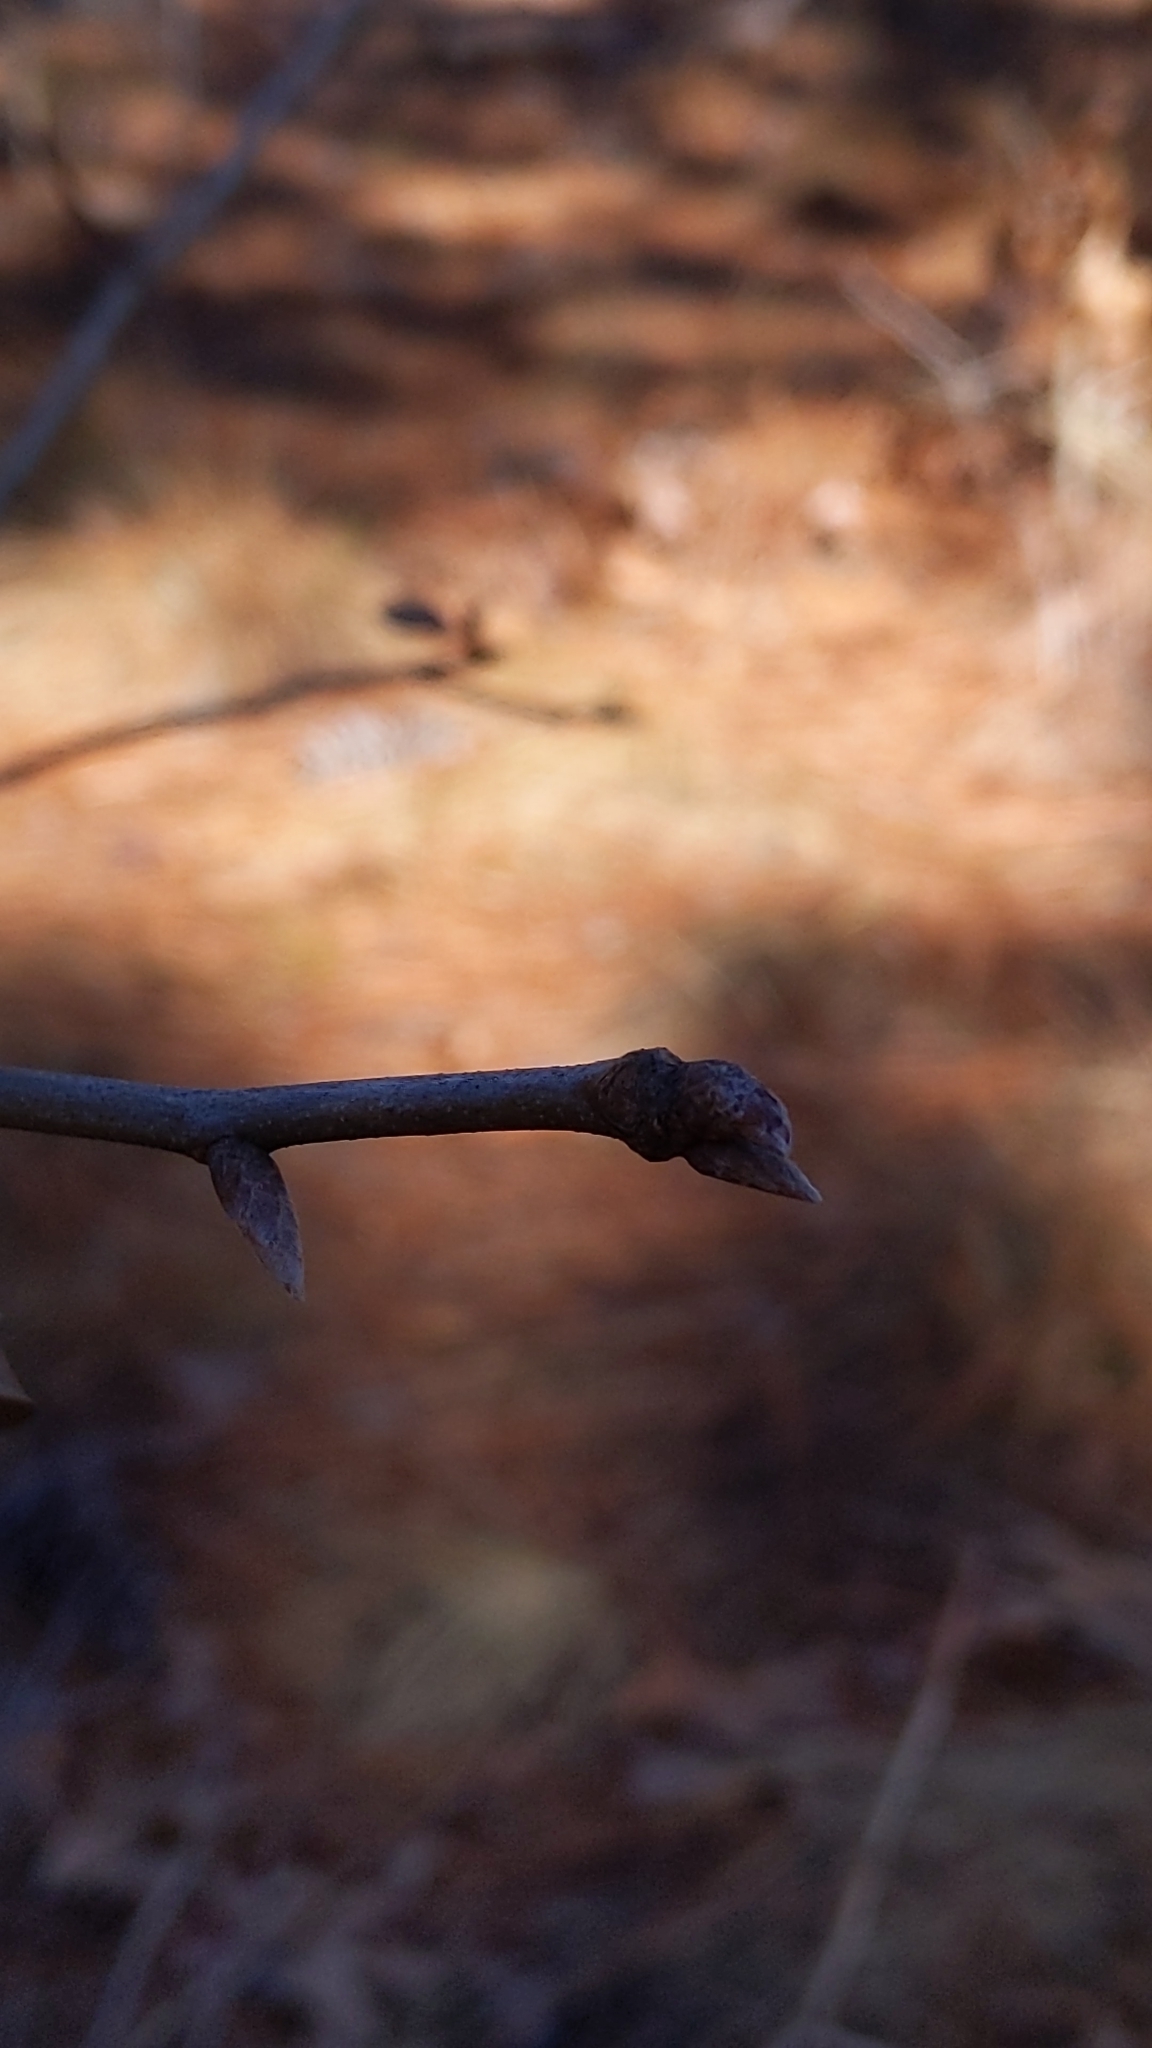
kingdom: Plantae
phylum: Tracheophyta
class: Magnoliopsida
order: Fagales
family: Fagaceae
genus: Quercus
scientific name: Quercus laevis
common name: Turkey oak
